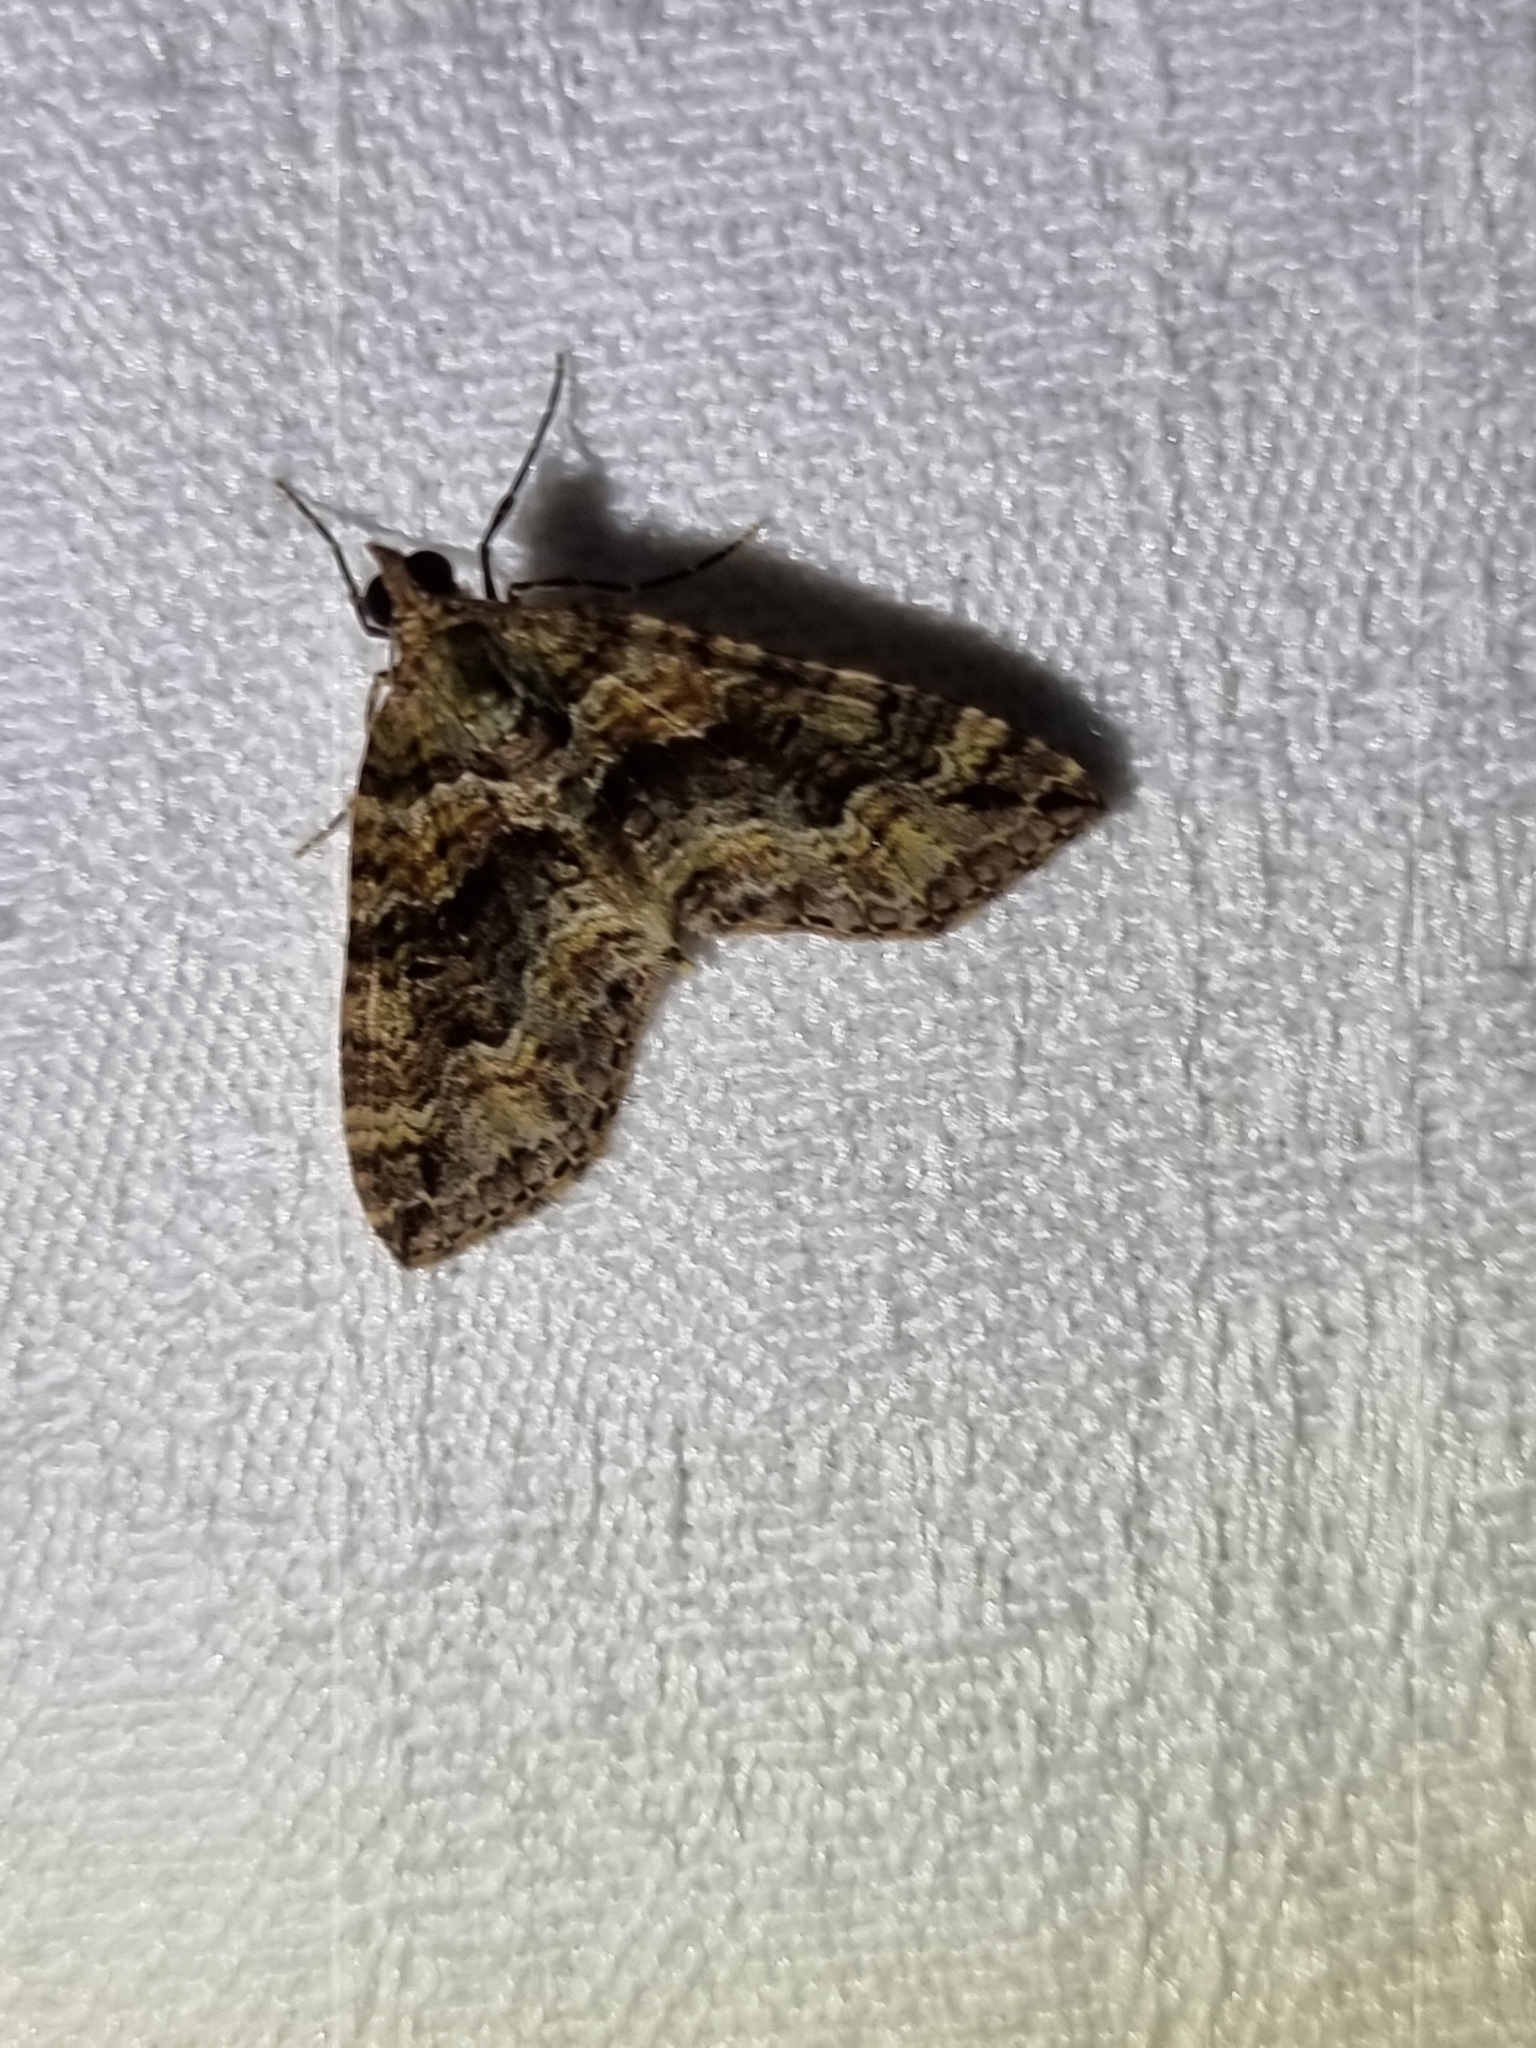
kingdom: Animalia
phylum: Arthropoda
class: Insecta
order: Lepidoptera
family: Geometridae
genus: Crasilogia
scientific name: Crasilogia gressitti
